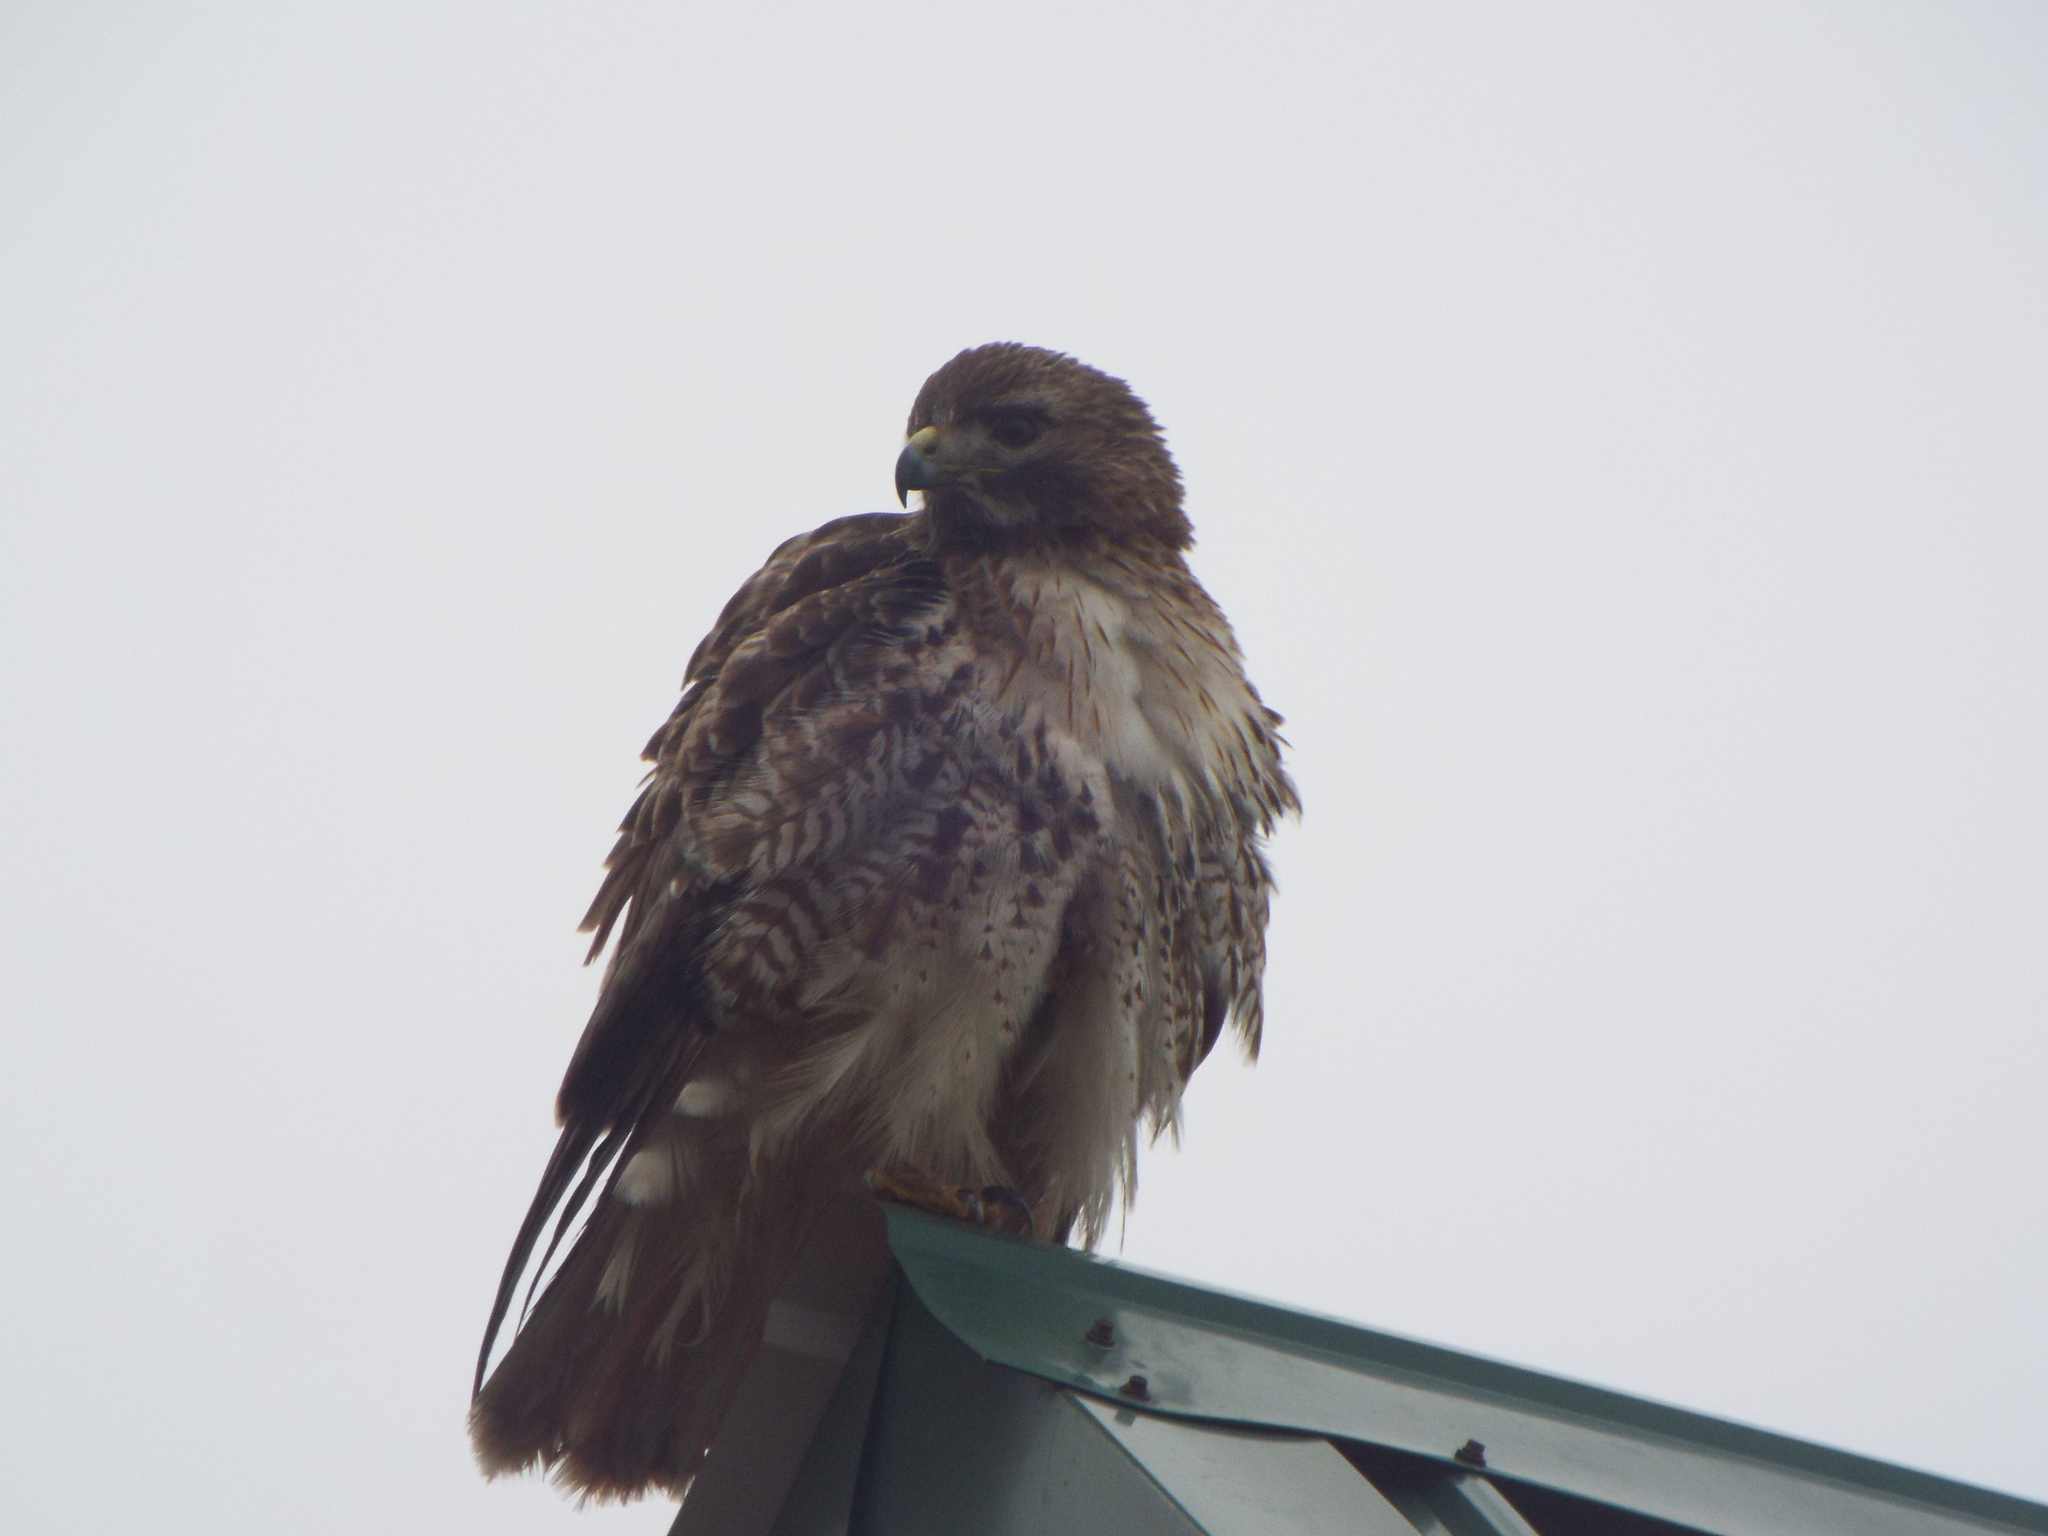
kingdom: Animalia
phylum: Chordata
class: Aves
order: Accipitriformes
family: Accipitridae
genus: Buteo
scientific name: Buteo jamaicensis
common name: Red-tailed hawk
